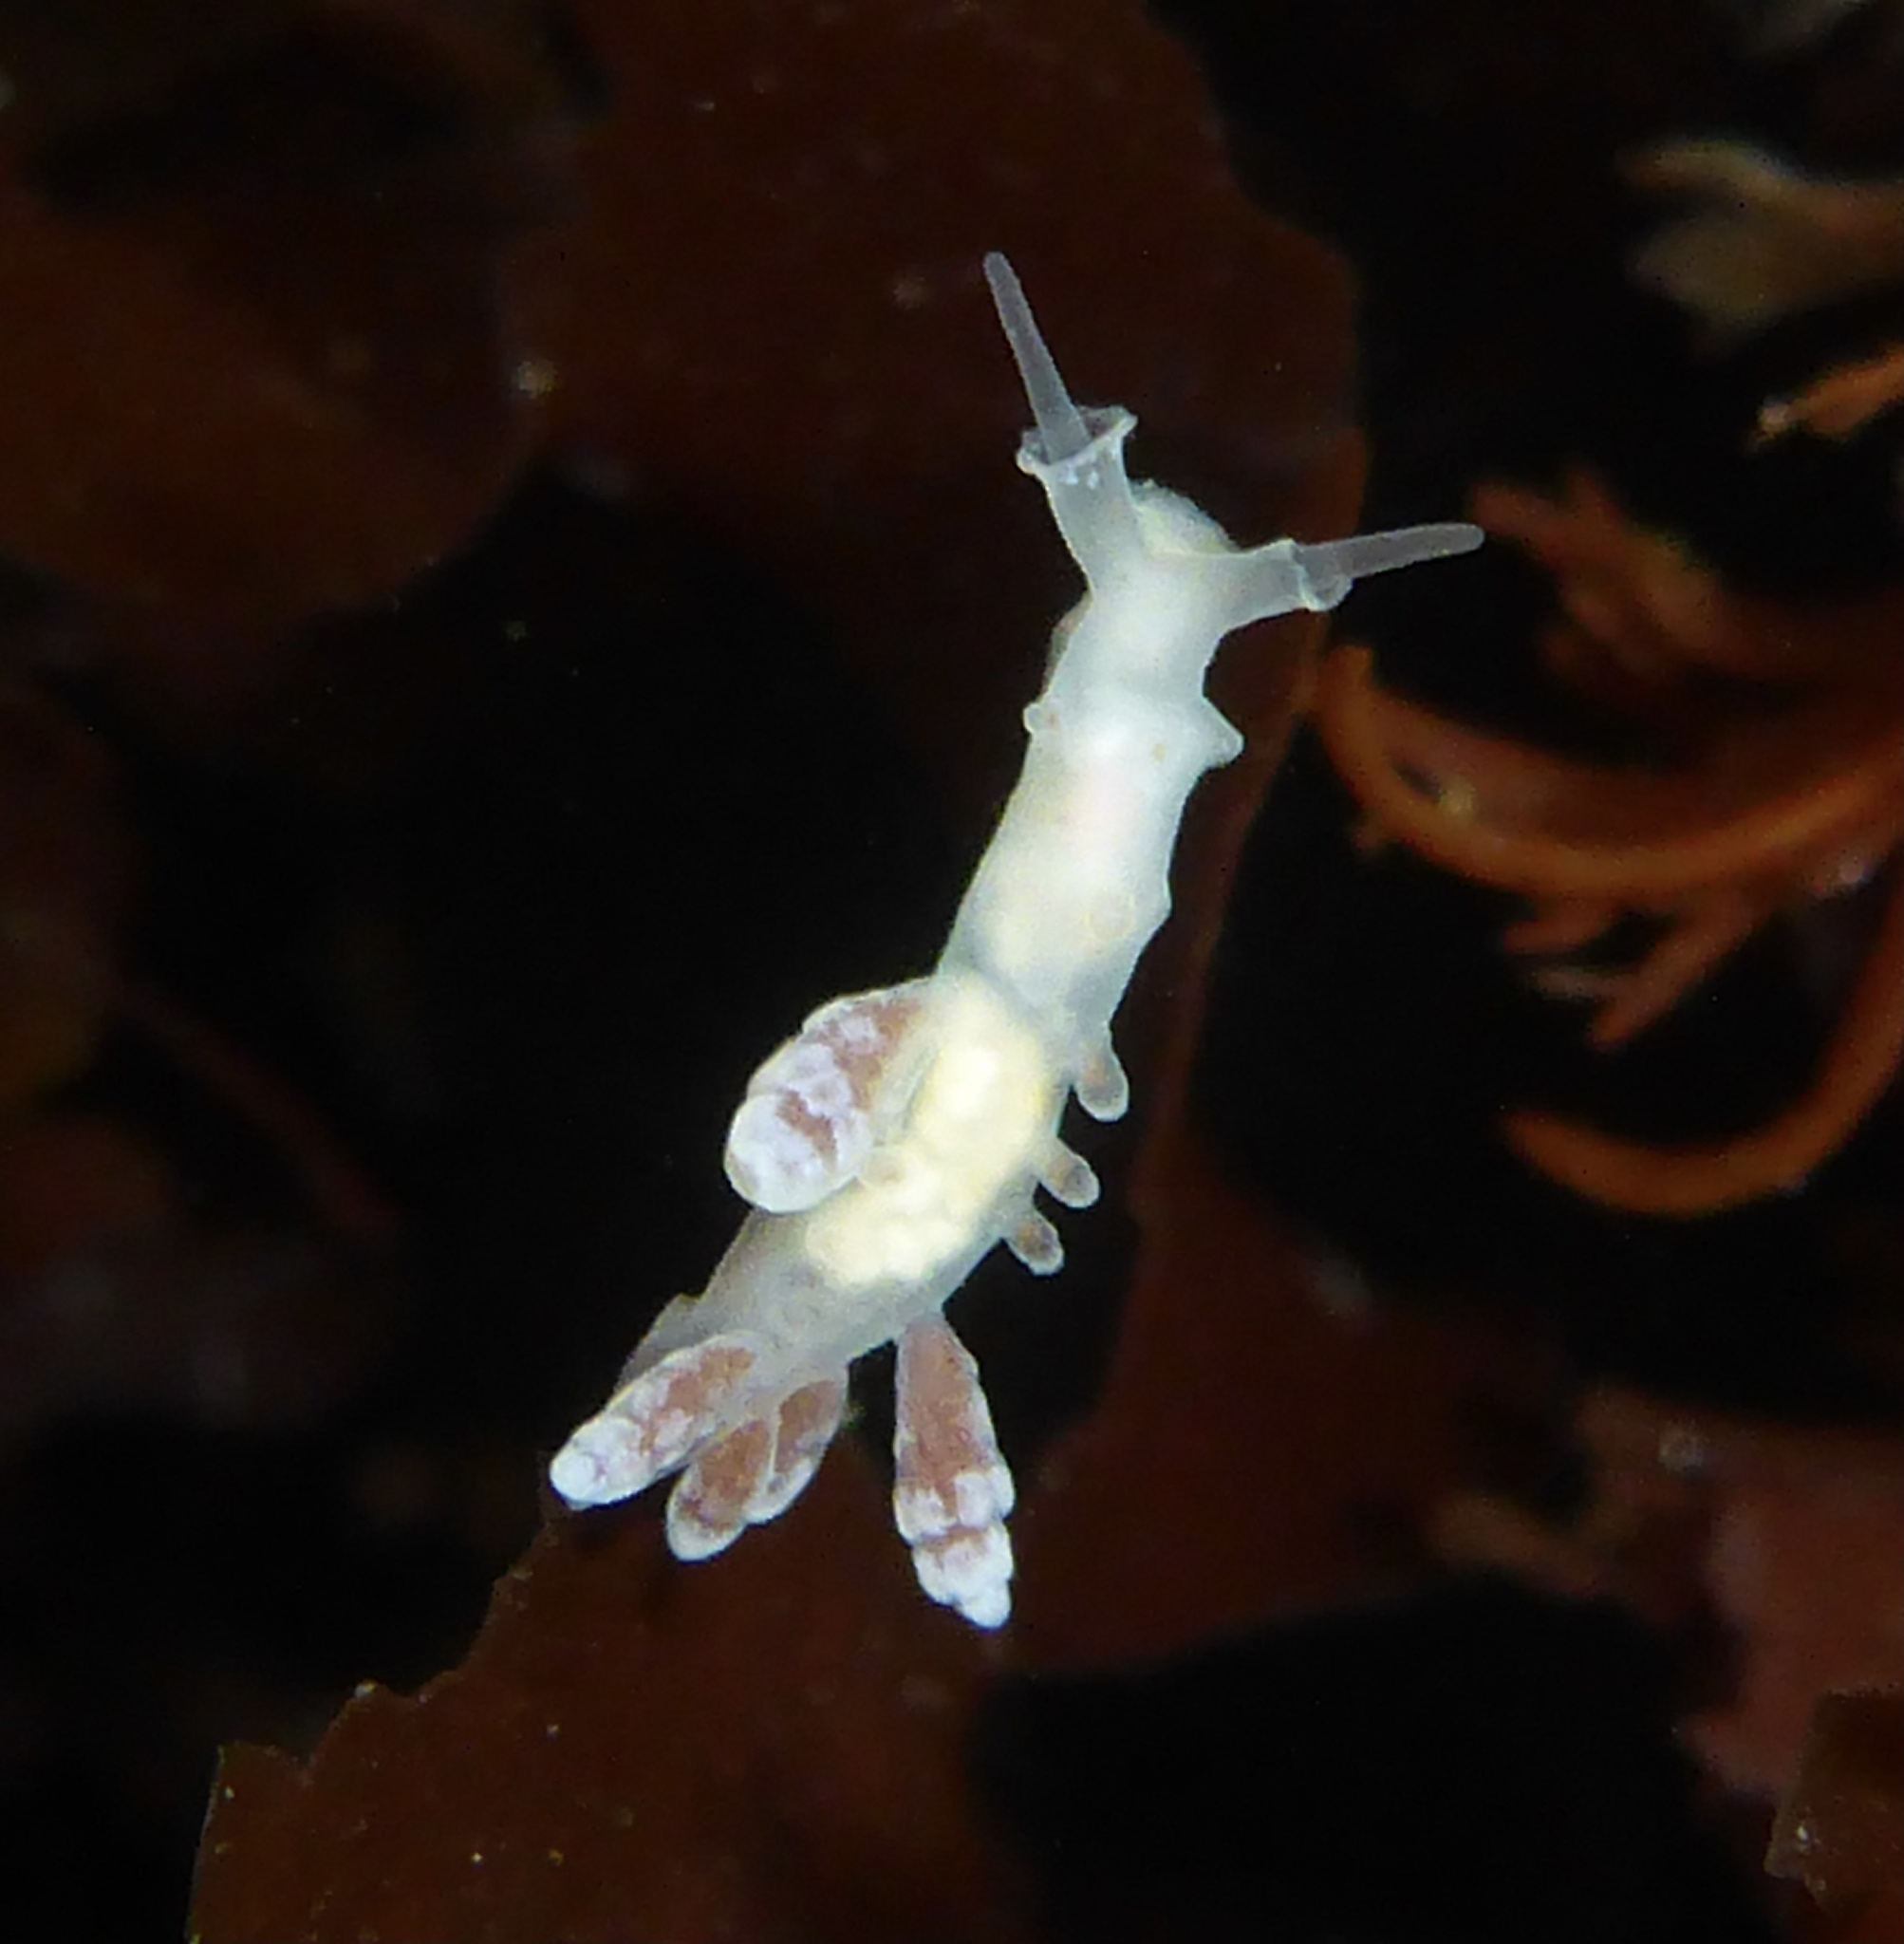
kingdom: Animalia
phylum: Mollusca
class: Gastropoda
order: Nudibranchia
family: Dotidae
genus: Doto
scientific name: Doto amyra
